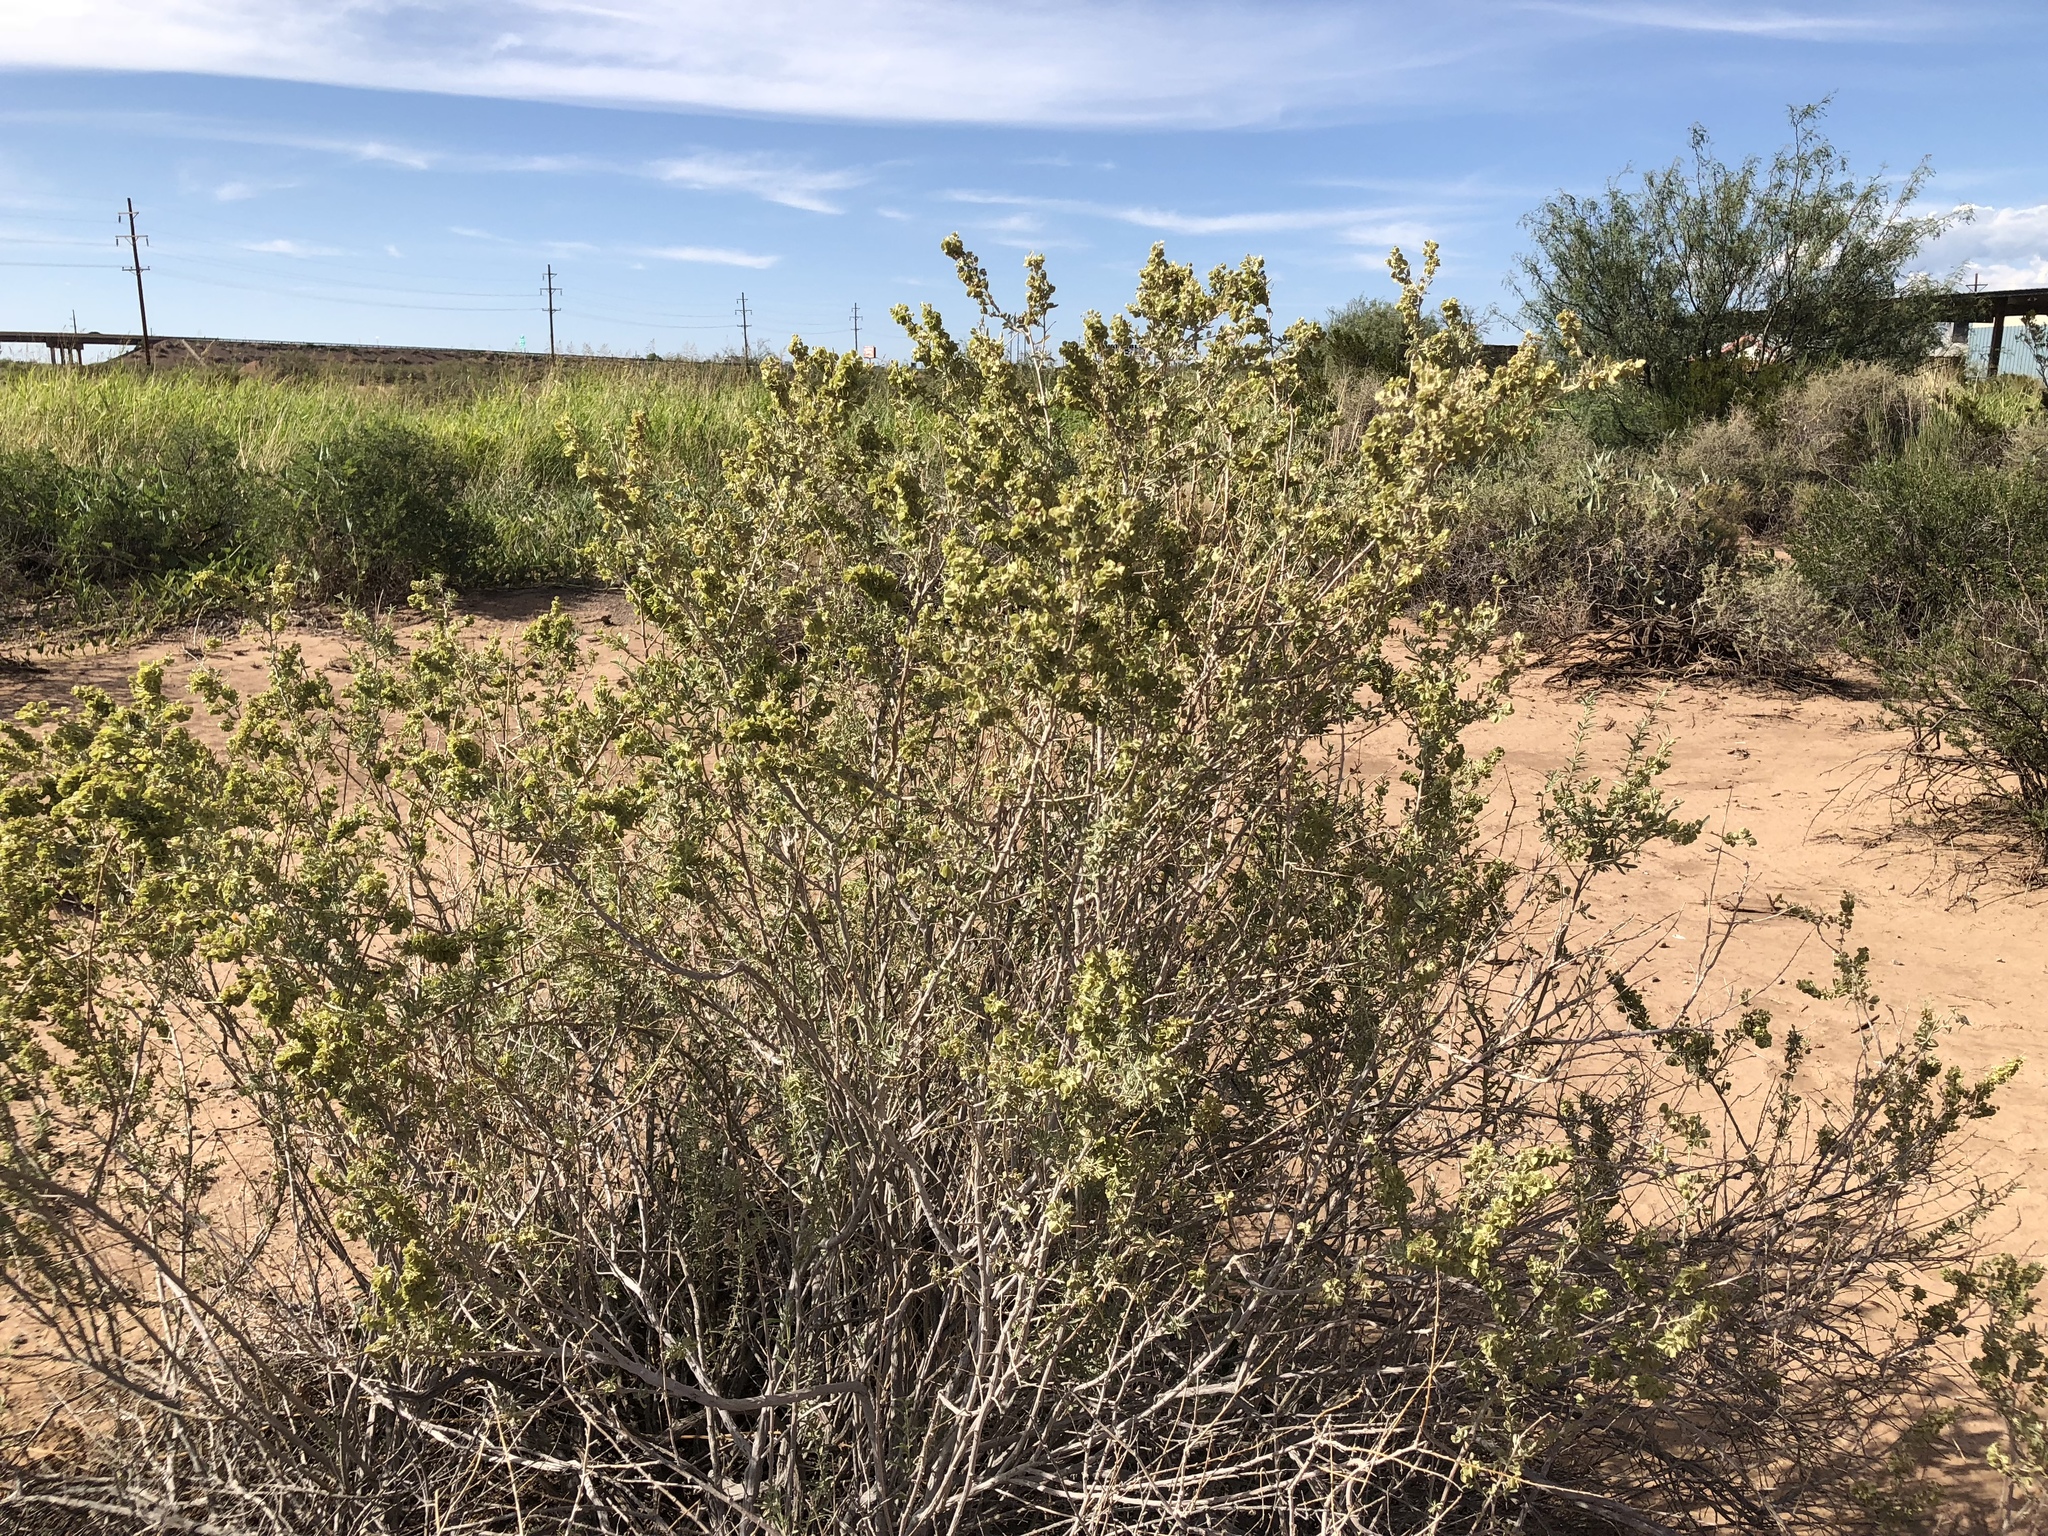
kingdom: Plantae
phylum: Tracheophyta
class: Magnoliopsida
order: Caryophyllales
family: Amaranthaceae
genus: Atriplex
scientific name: Atriplex canescens
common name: Four-wing saltbush
